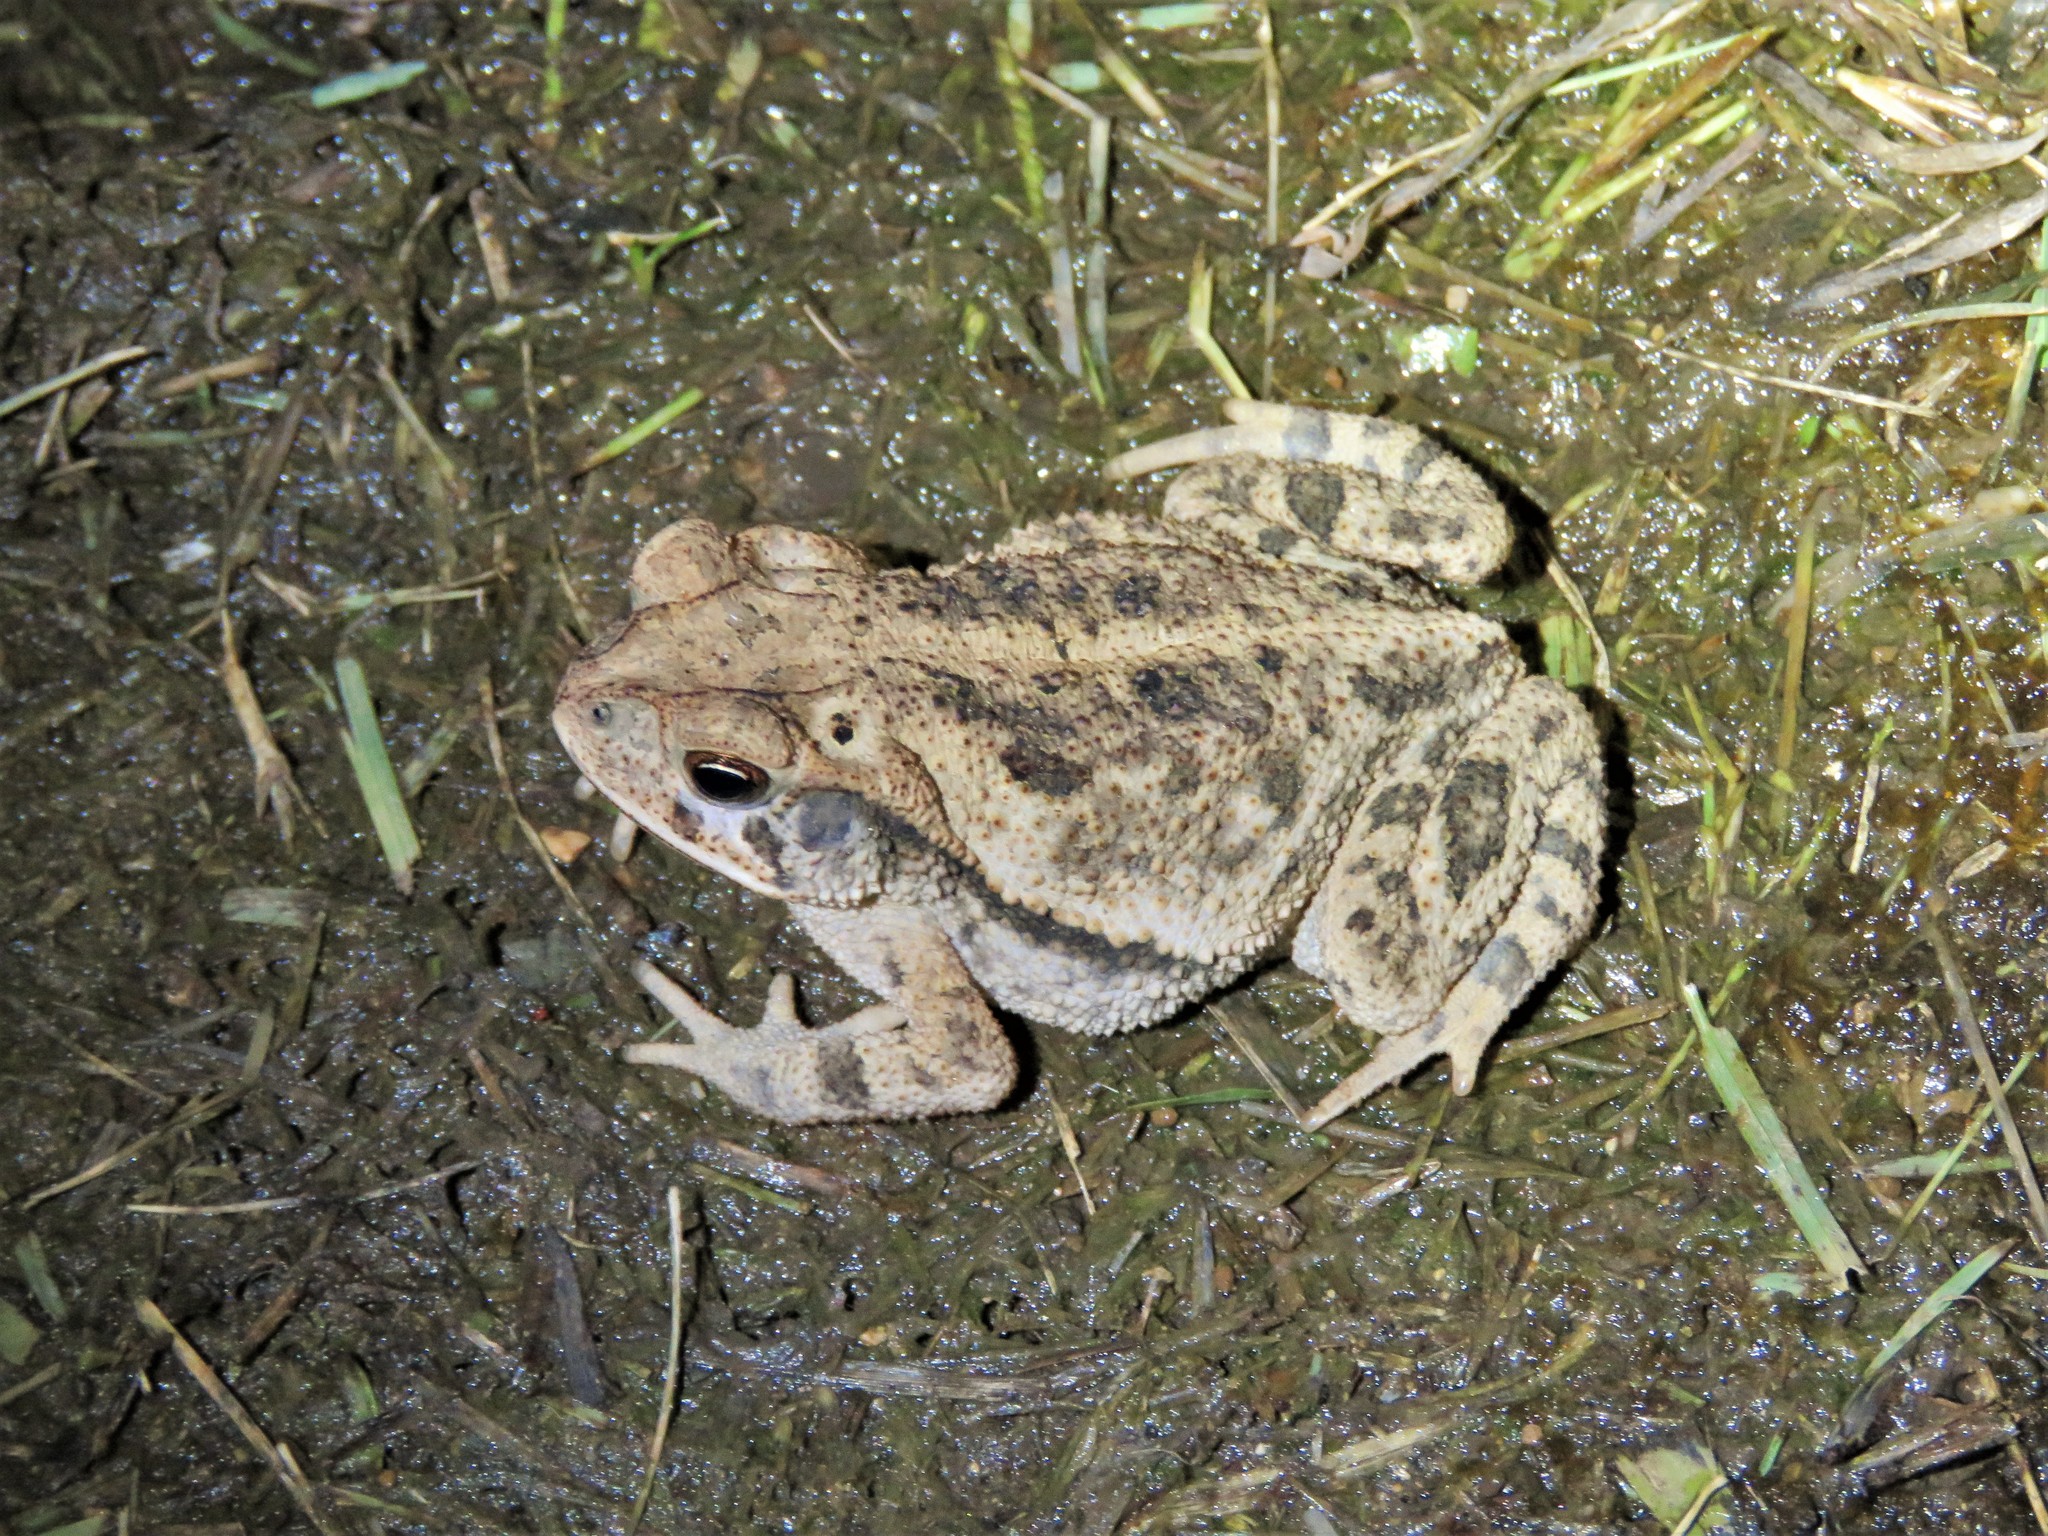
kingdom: Animalia
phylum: Chordata
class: Amphibia
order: Anura
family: Bufonidae
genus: Incilius
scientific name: Incilius nebulifer
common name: Gulf coast toad
